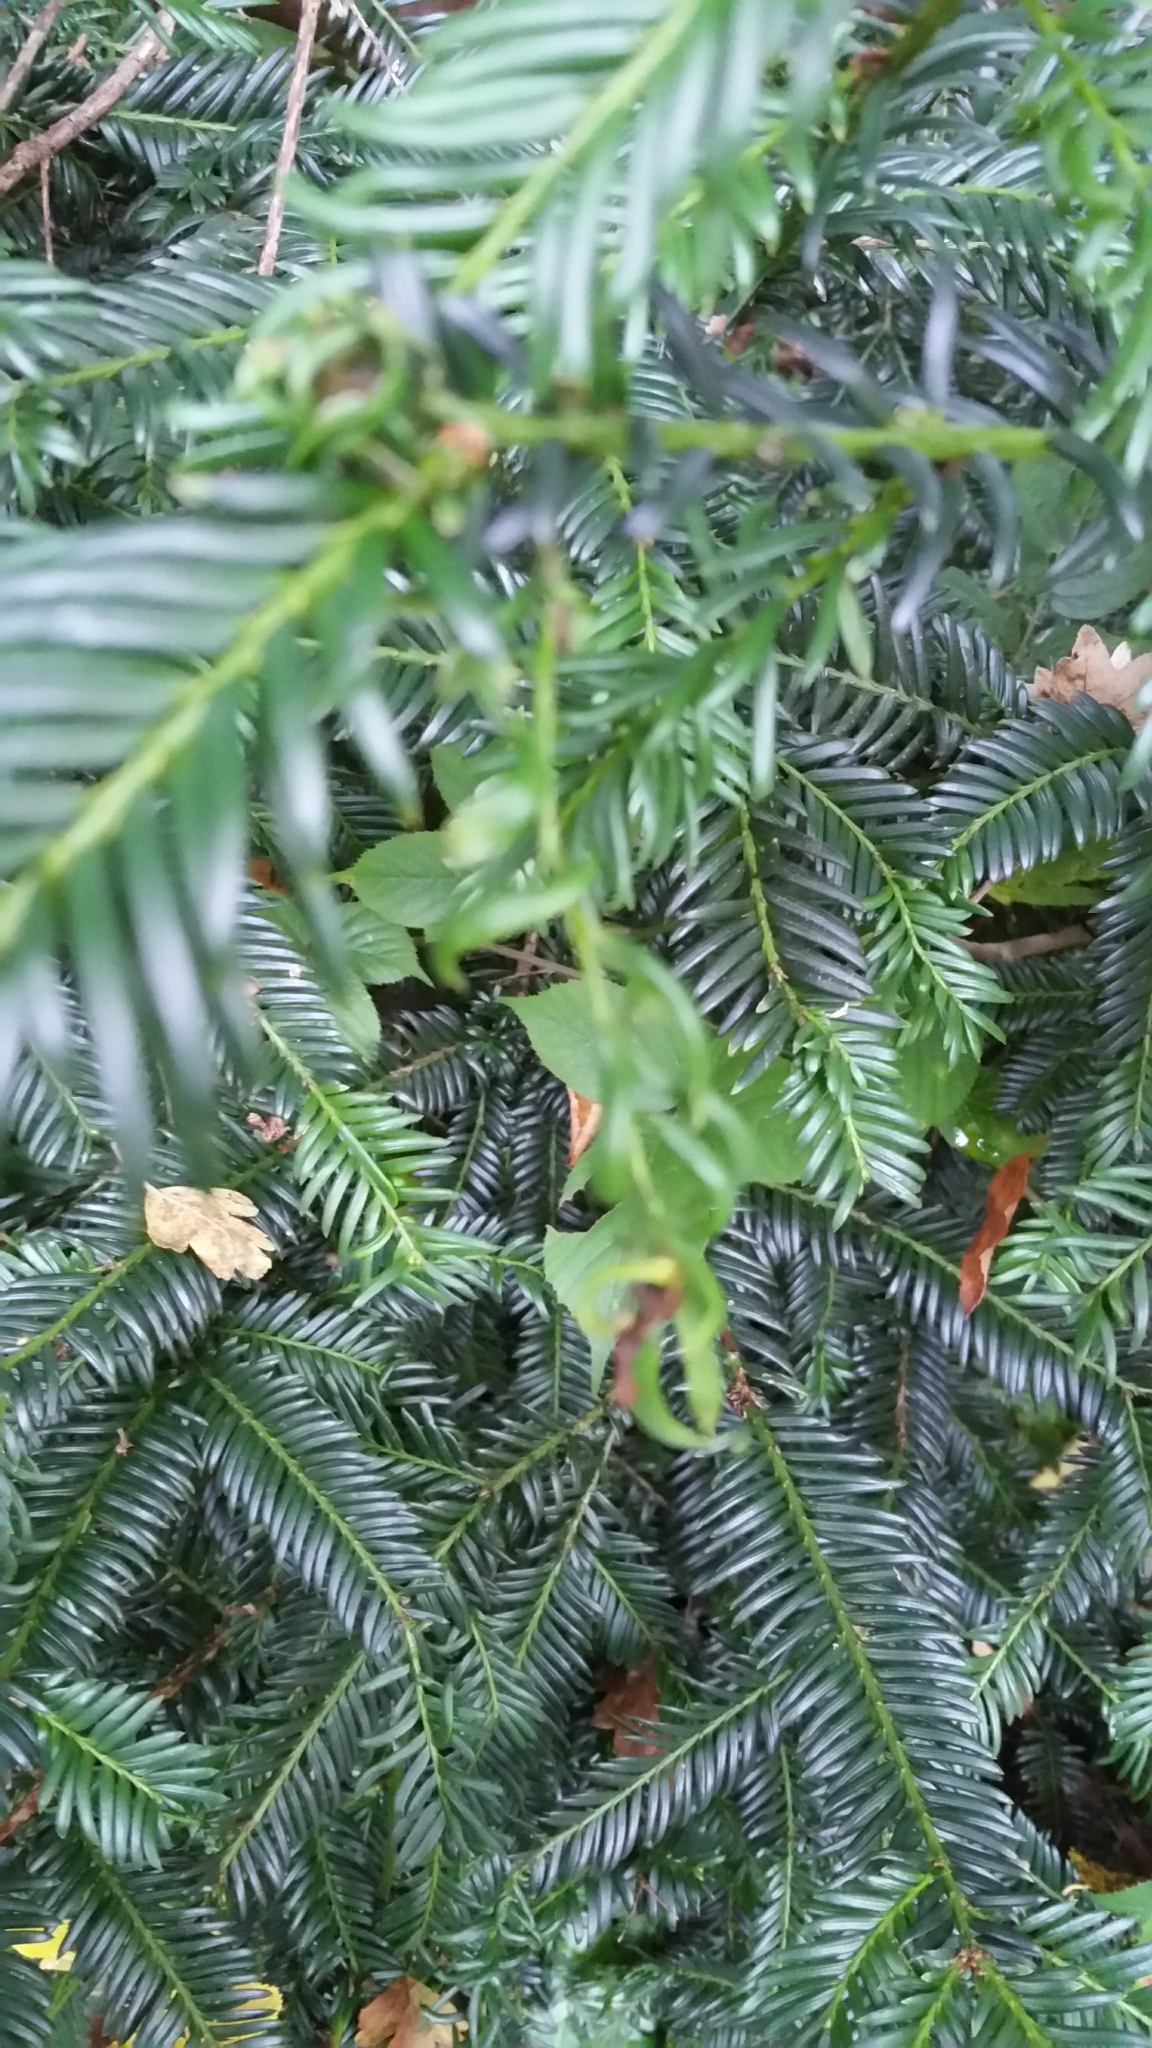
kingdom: Plantae
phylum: Tracheophyta
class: Pinopsida
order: Pinales
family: Taxaceae
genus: Taxus
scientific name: Taxus baccata
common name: Yew
